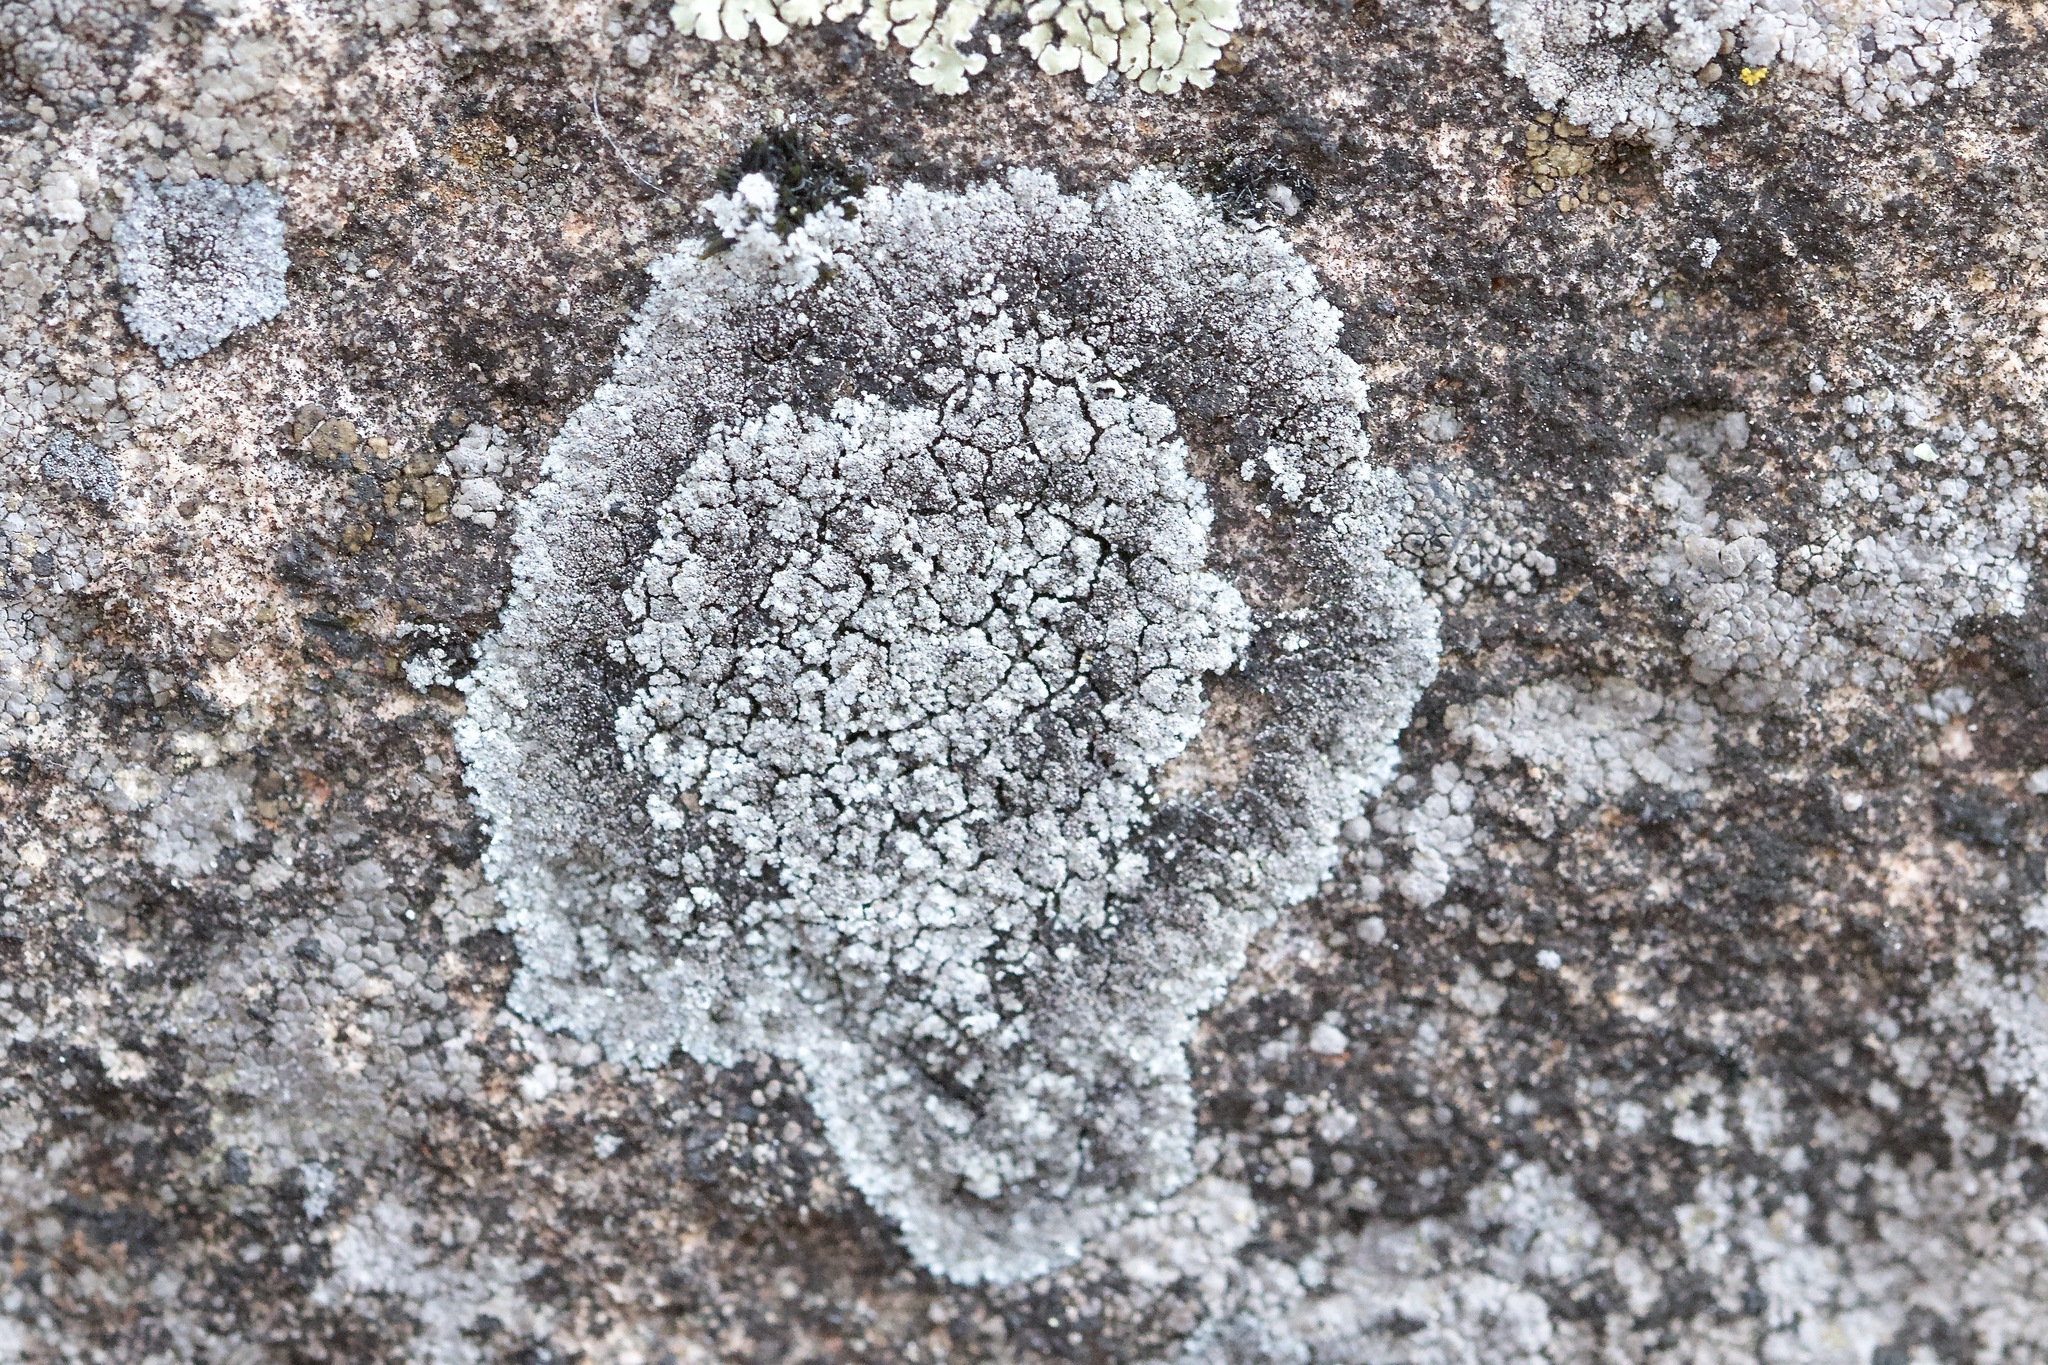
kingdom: Fungi
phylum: Ascomycota
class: Lecanoromycetes
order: Lecanorales
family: Stereocaulaceae
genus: Lepraria
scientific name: Lepraria neglecta
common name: Zoned dust lichen
